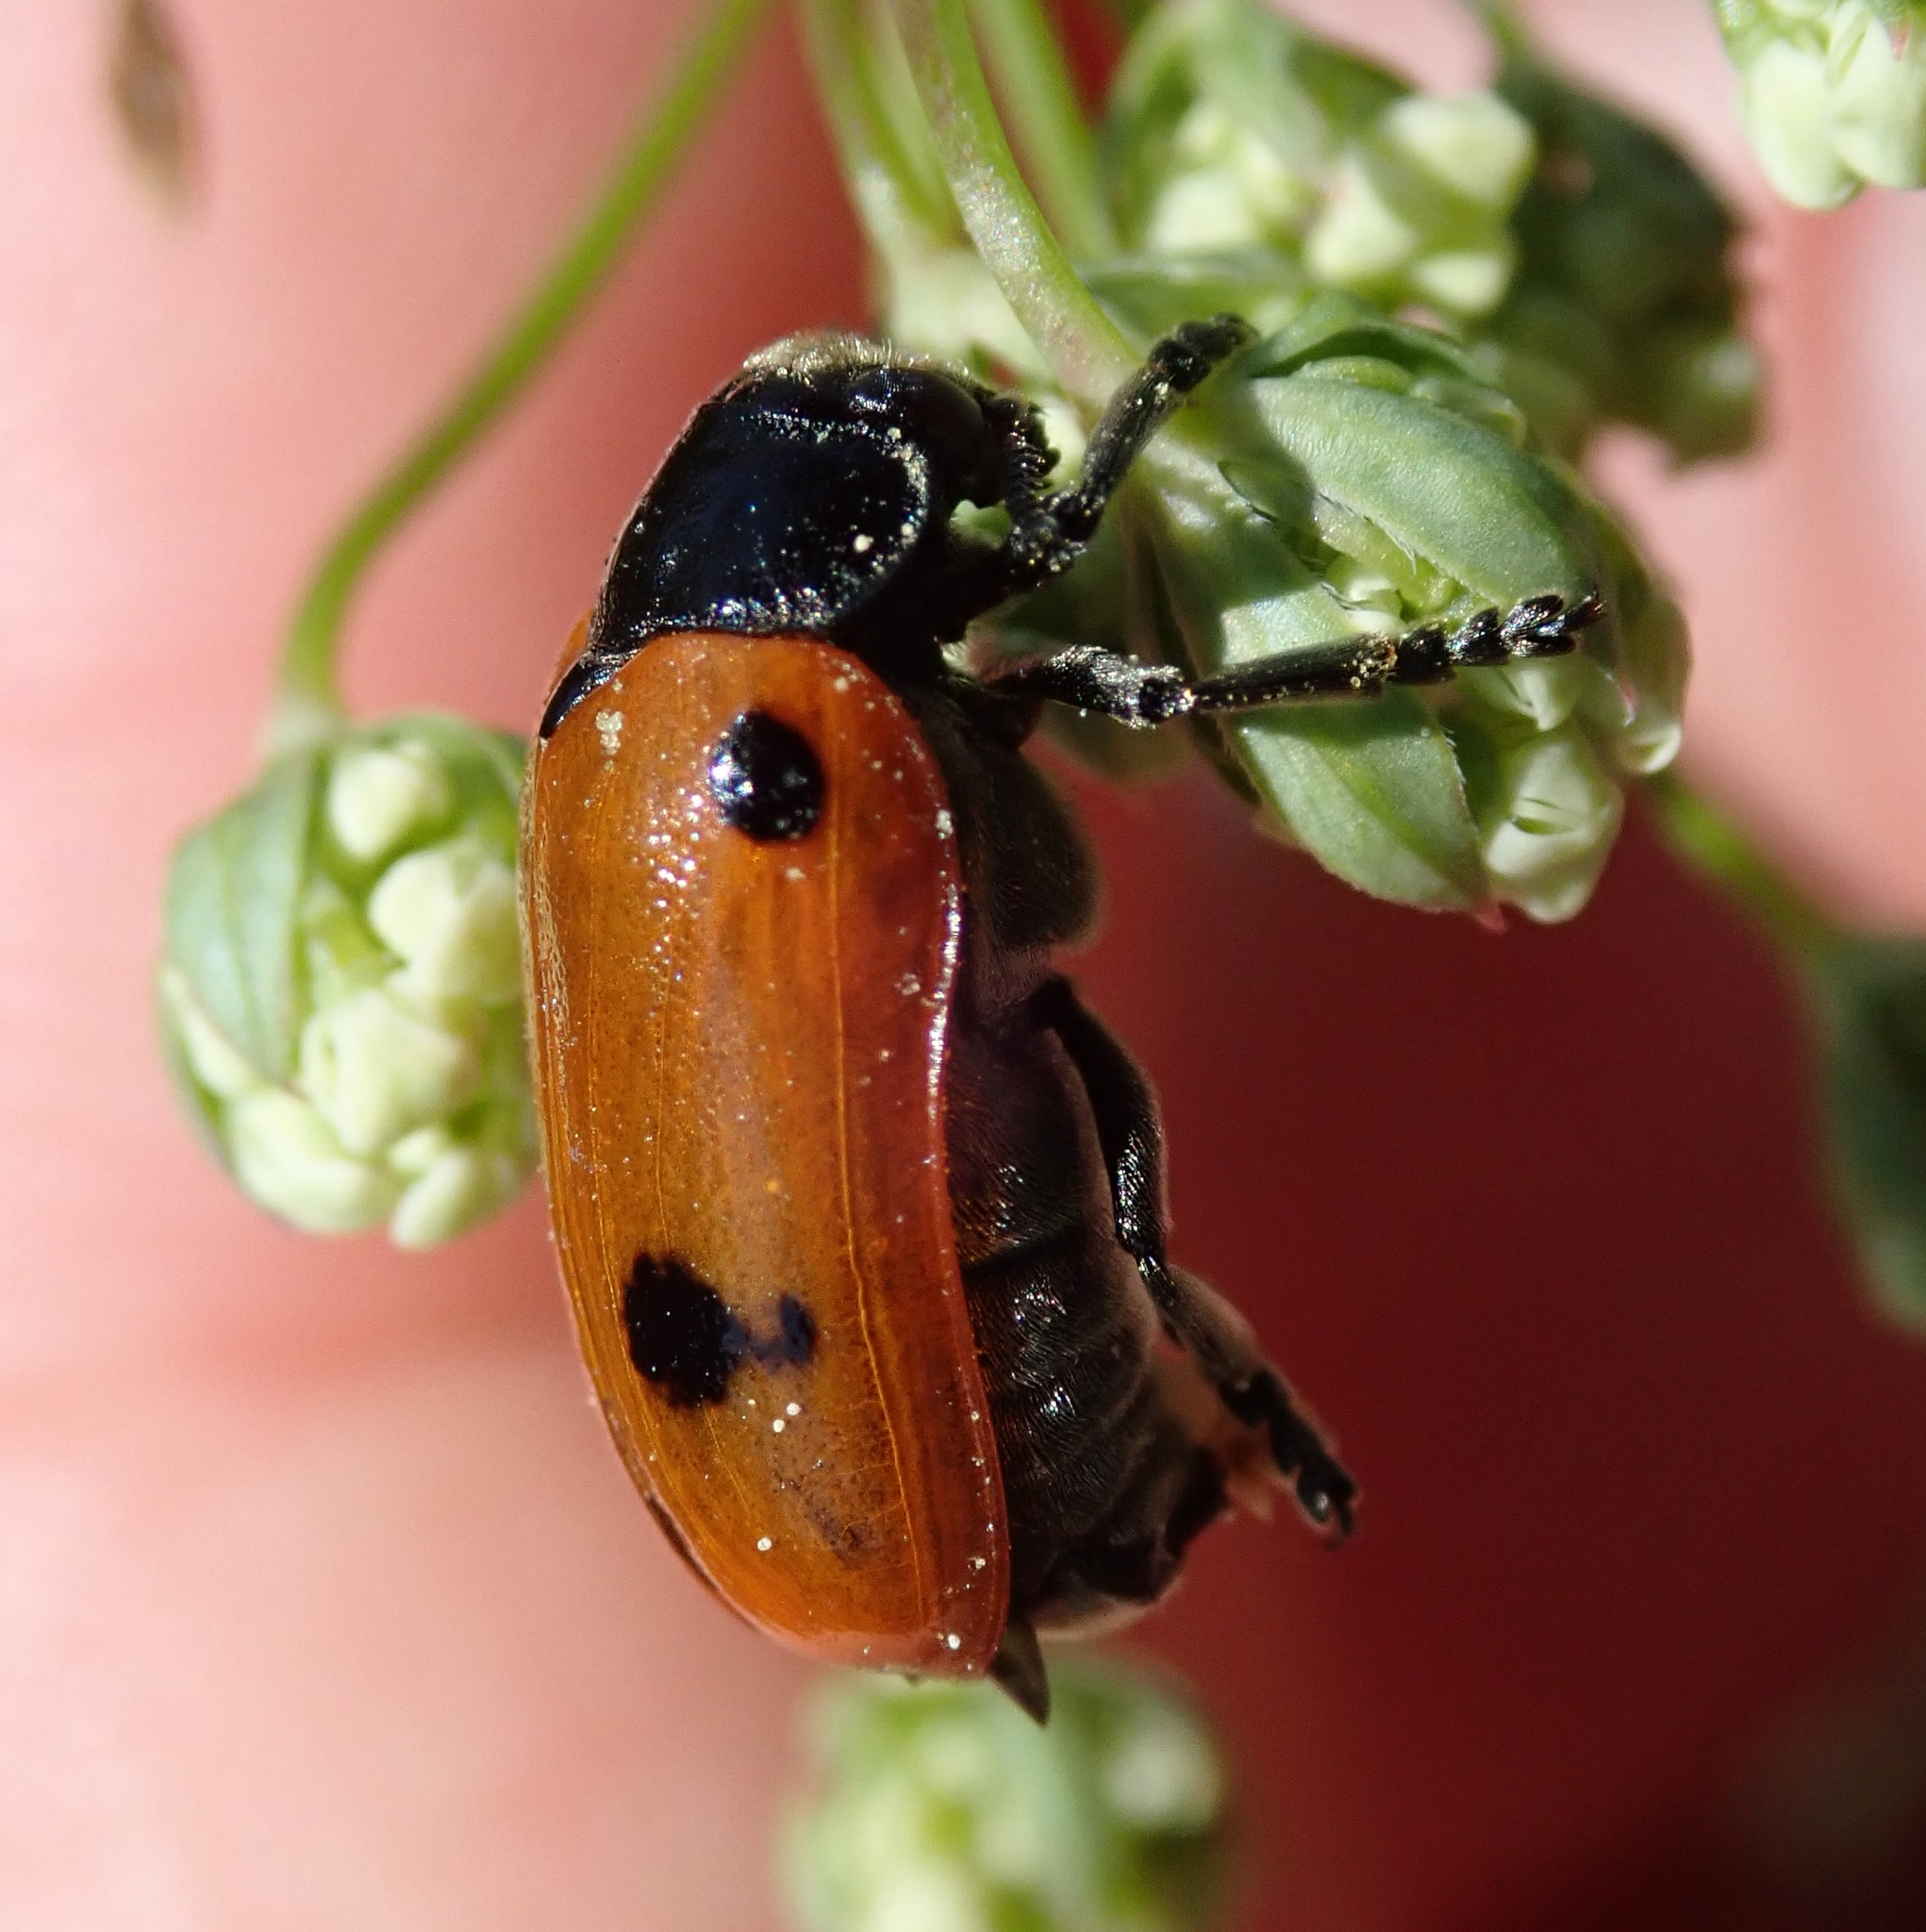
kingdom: Animalia
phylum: Arthropoda
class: Insecta
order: Coleoptera
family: Chrysomelidae
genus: Clytra
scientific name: Clytra quadripunctata
